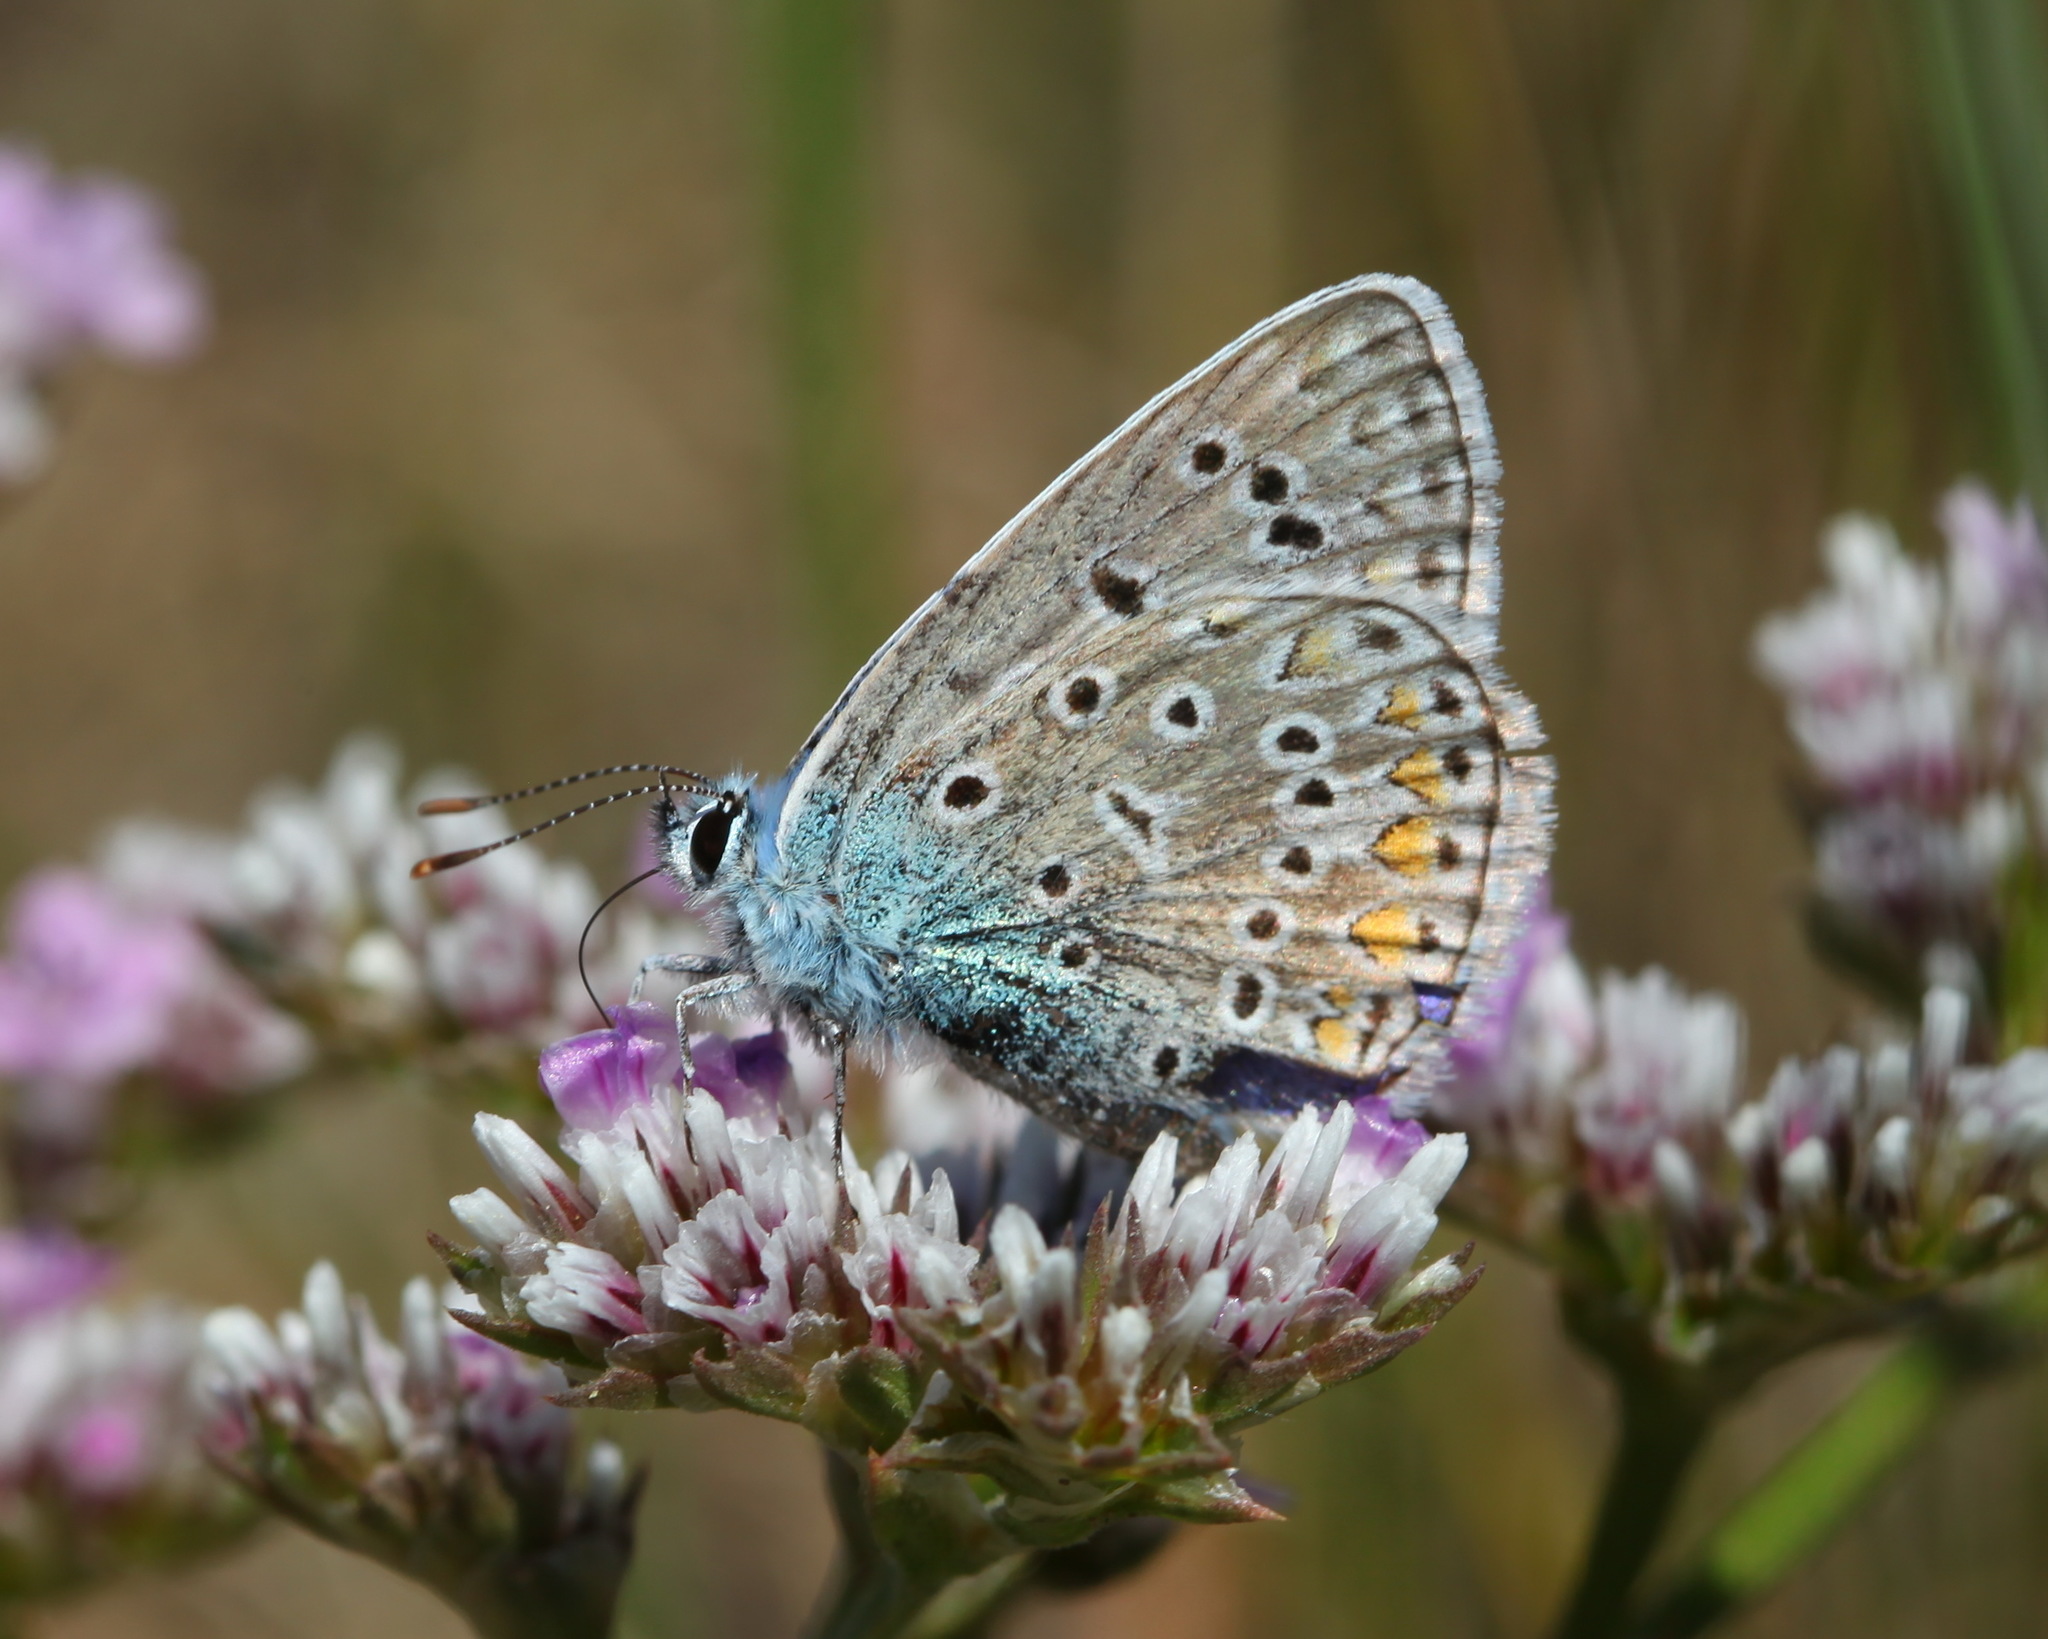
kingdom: Animalia
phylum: Arthropoda
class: Insecta
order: Lepidoptera
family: Lycaenidae
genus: Polyommatus
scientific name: Polyommatus icarus
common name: Common blue
